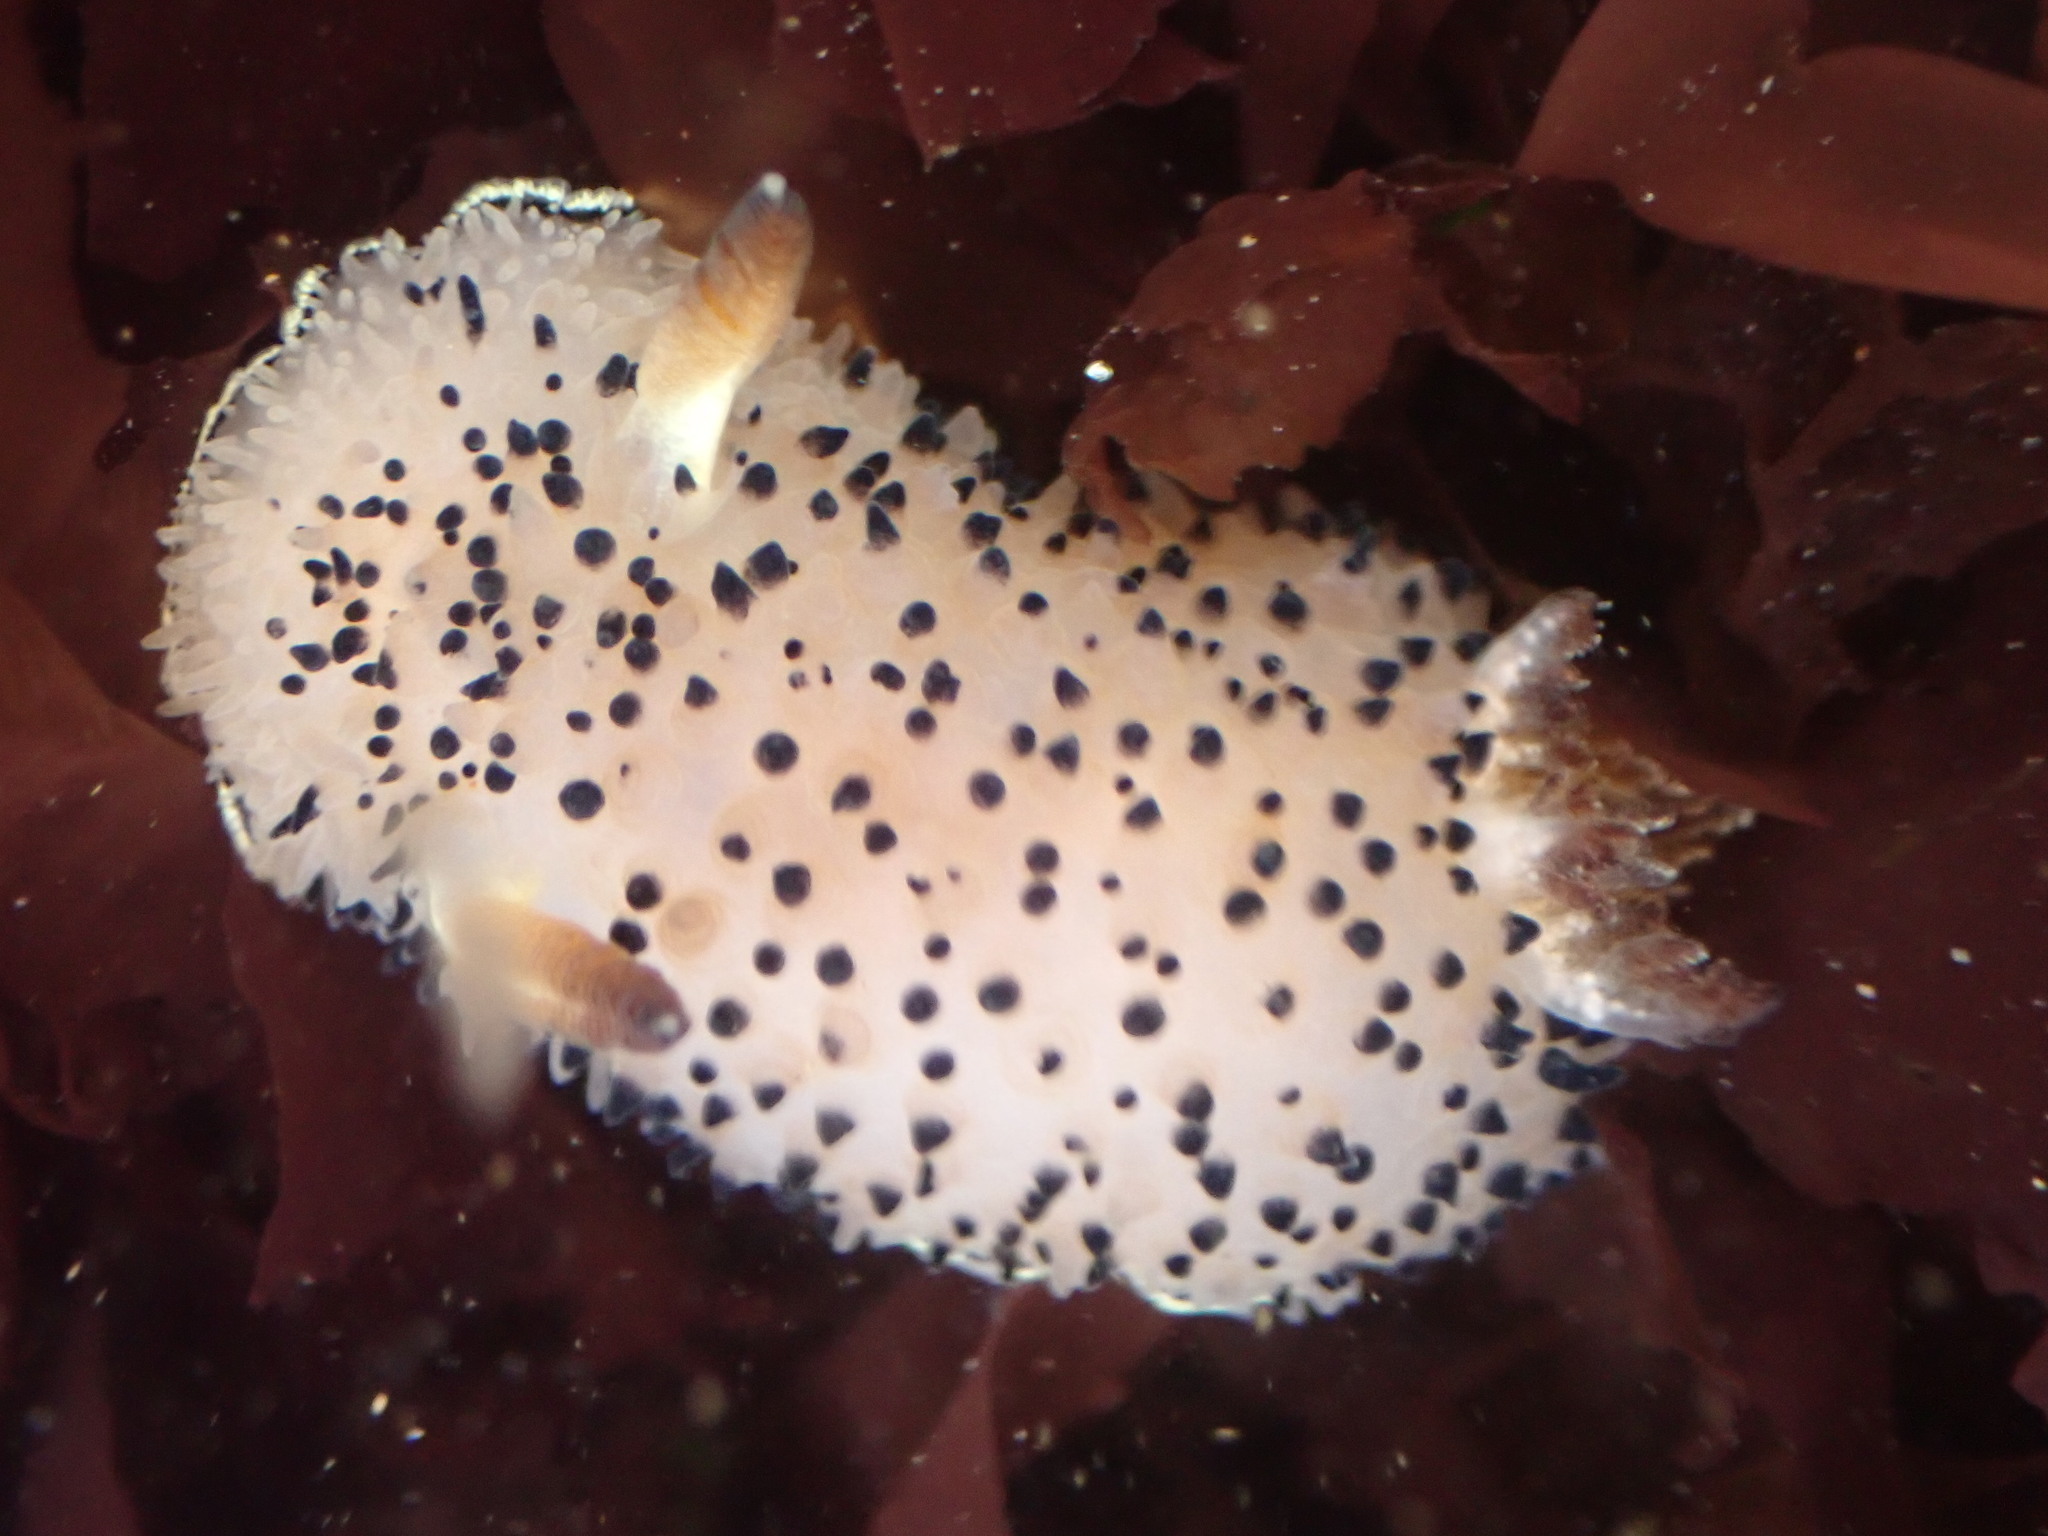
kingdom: Animalia
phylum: Mollusca
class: Gastropoda
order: Nudibranchia
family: Onchidorididae
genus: Acanthodoris
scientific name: Acanthodoris rhodoceras
